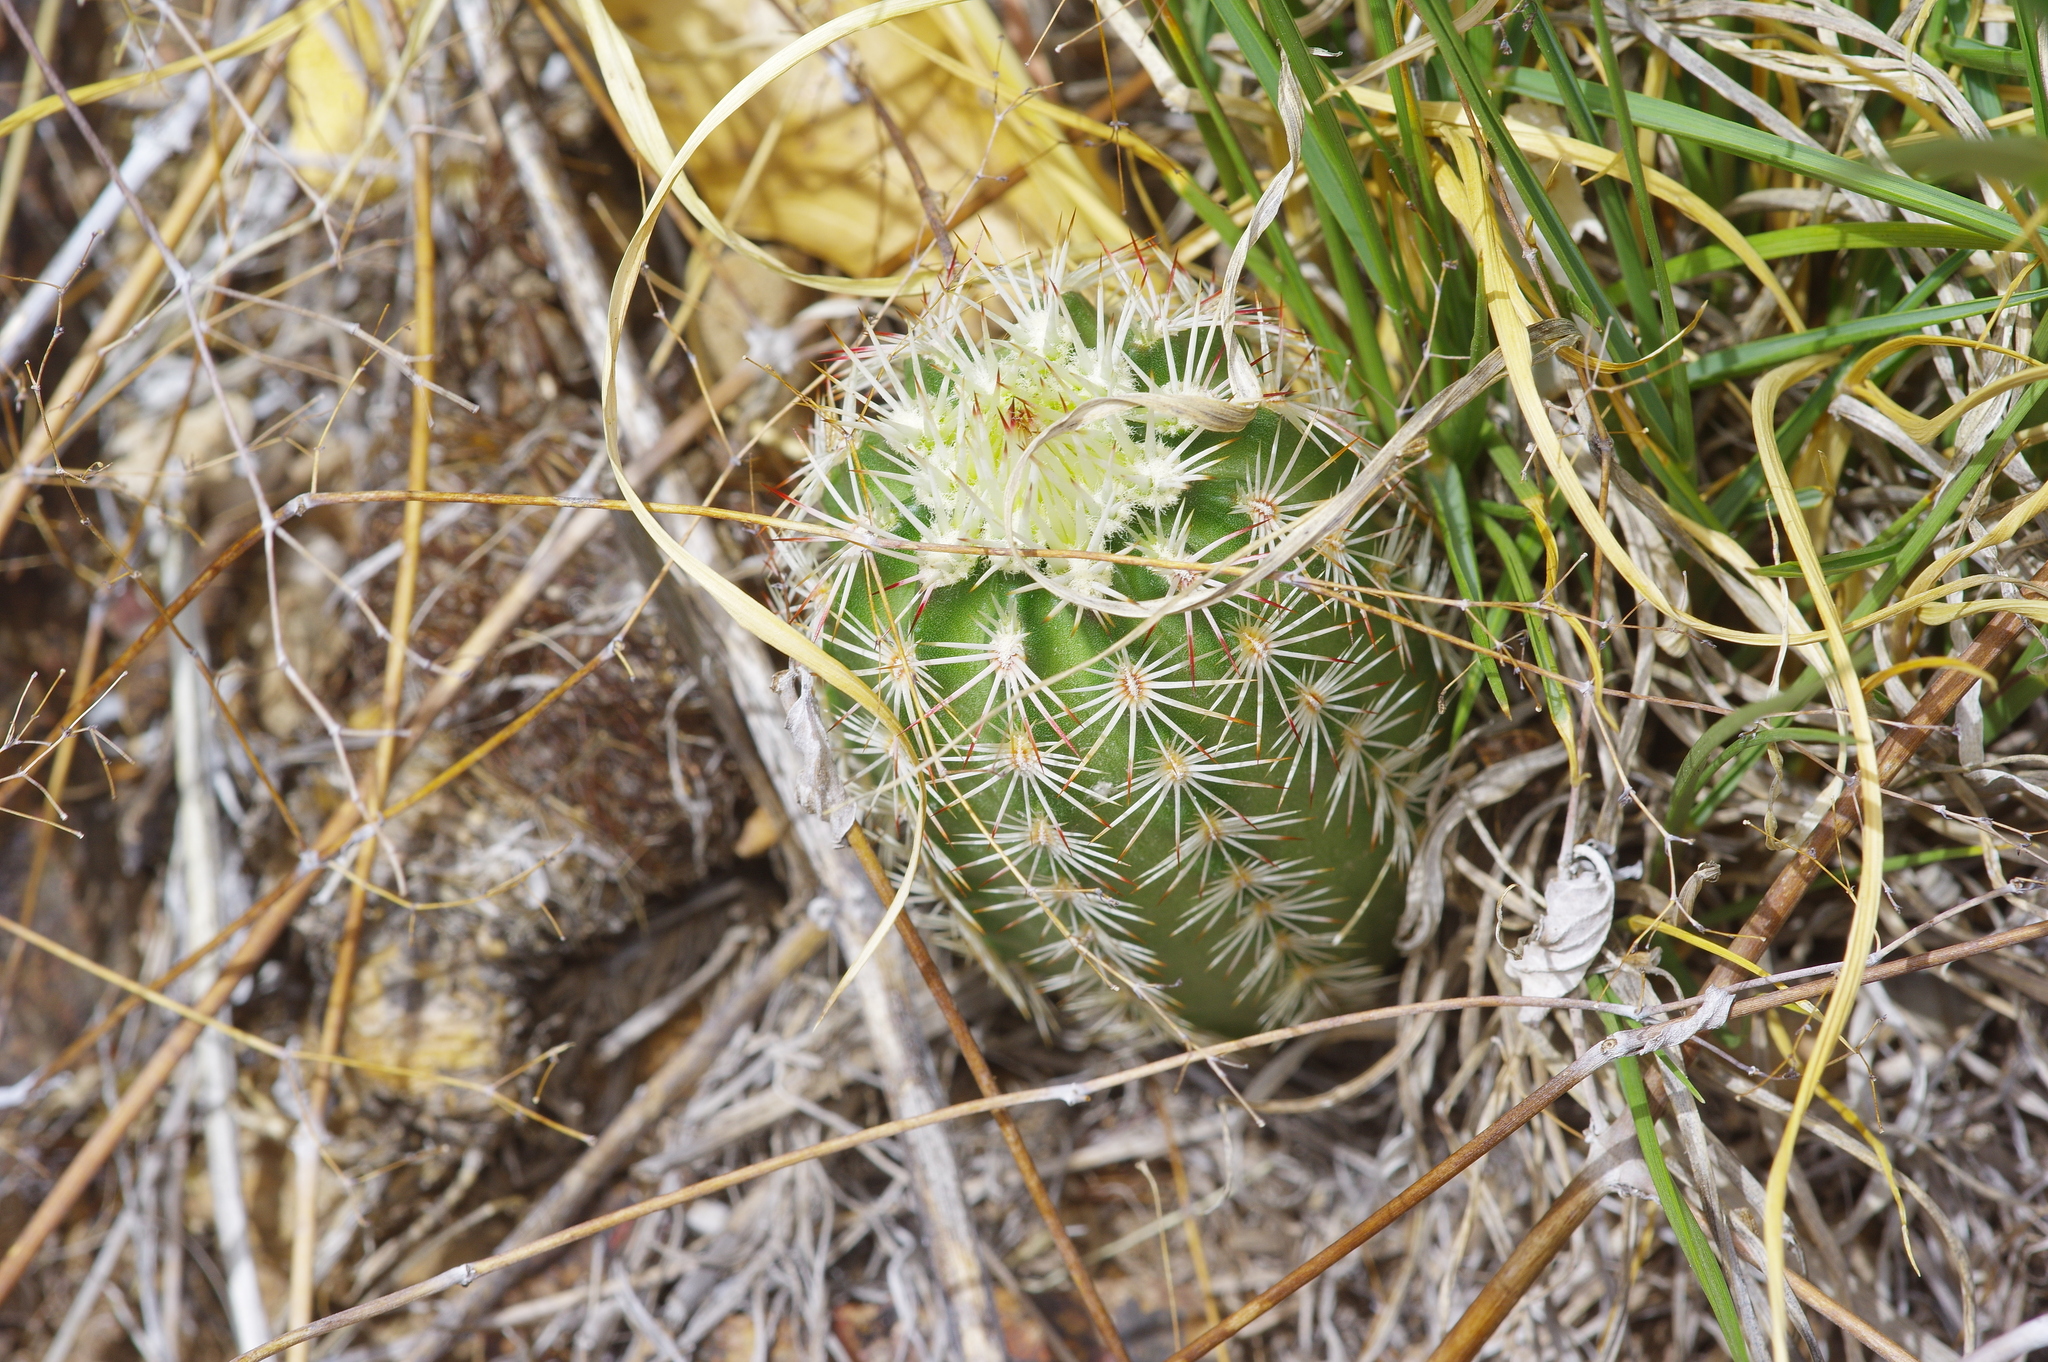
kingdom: Plantae
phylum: Tracheophyta
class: Magnoliopsida
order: Caryophyllales
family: Cactaceae
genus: Echinocereus
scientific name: Echinocereus viridiflorus
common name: Nylon hedgehog cactus
